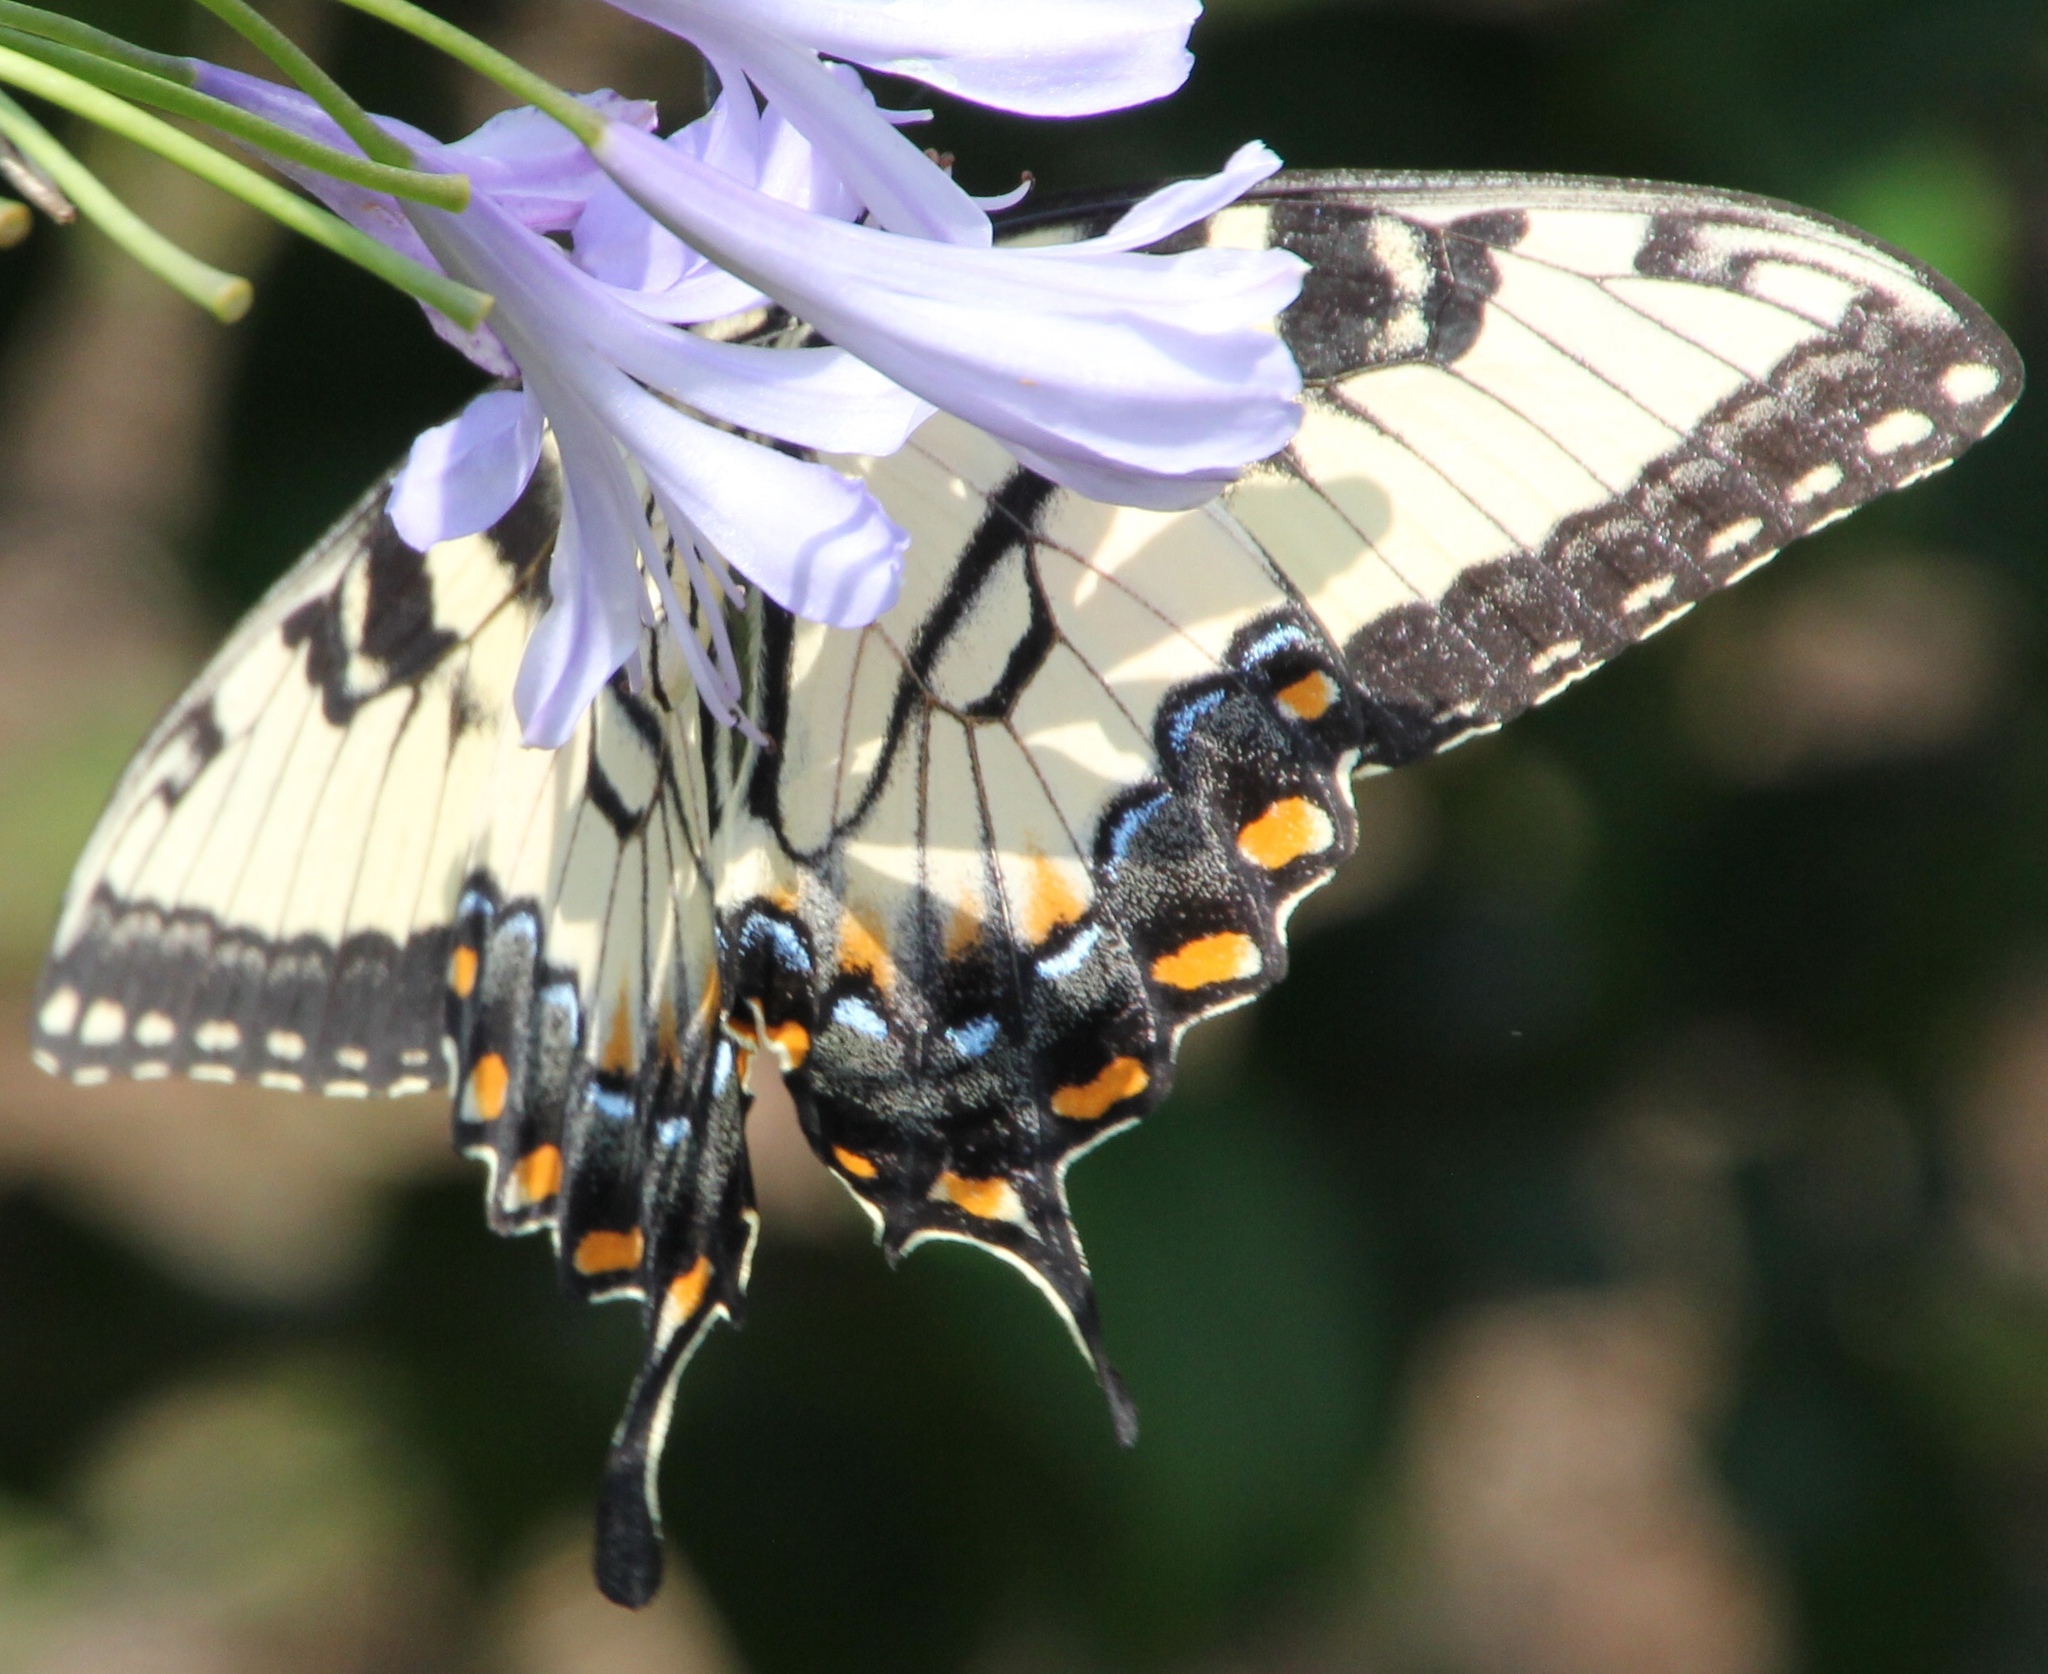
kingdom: Animalia
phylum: Arthropoda
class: Insecta
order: Lepidoptera
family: Papilionidae
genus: Papilio
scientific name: Papilio glaucus
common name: Tiger swallowtail
